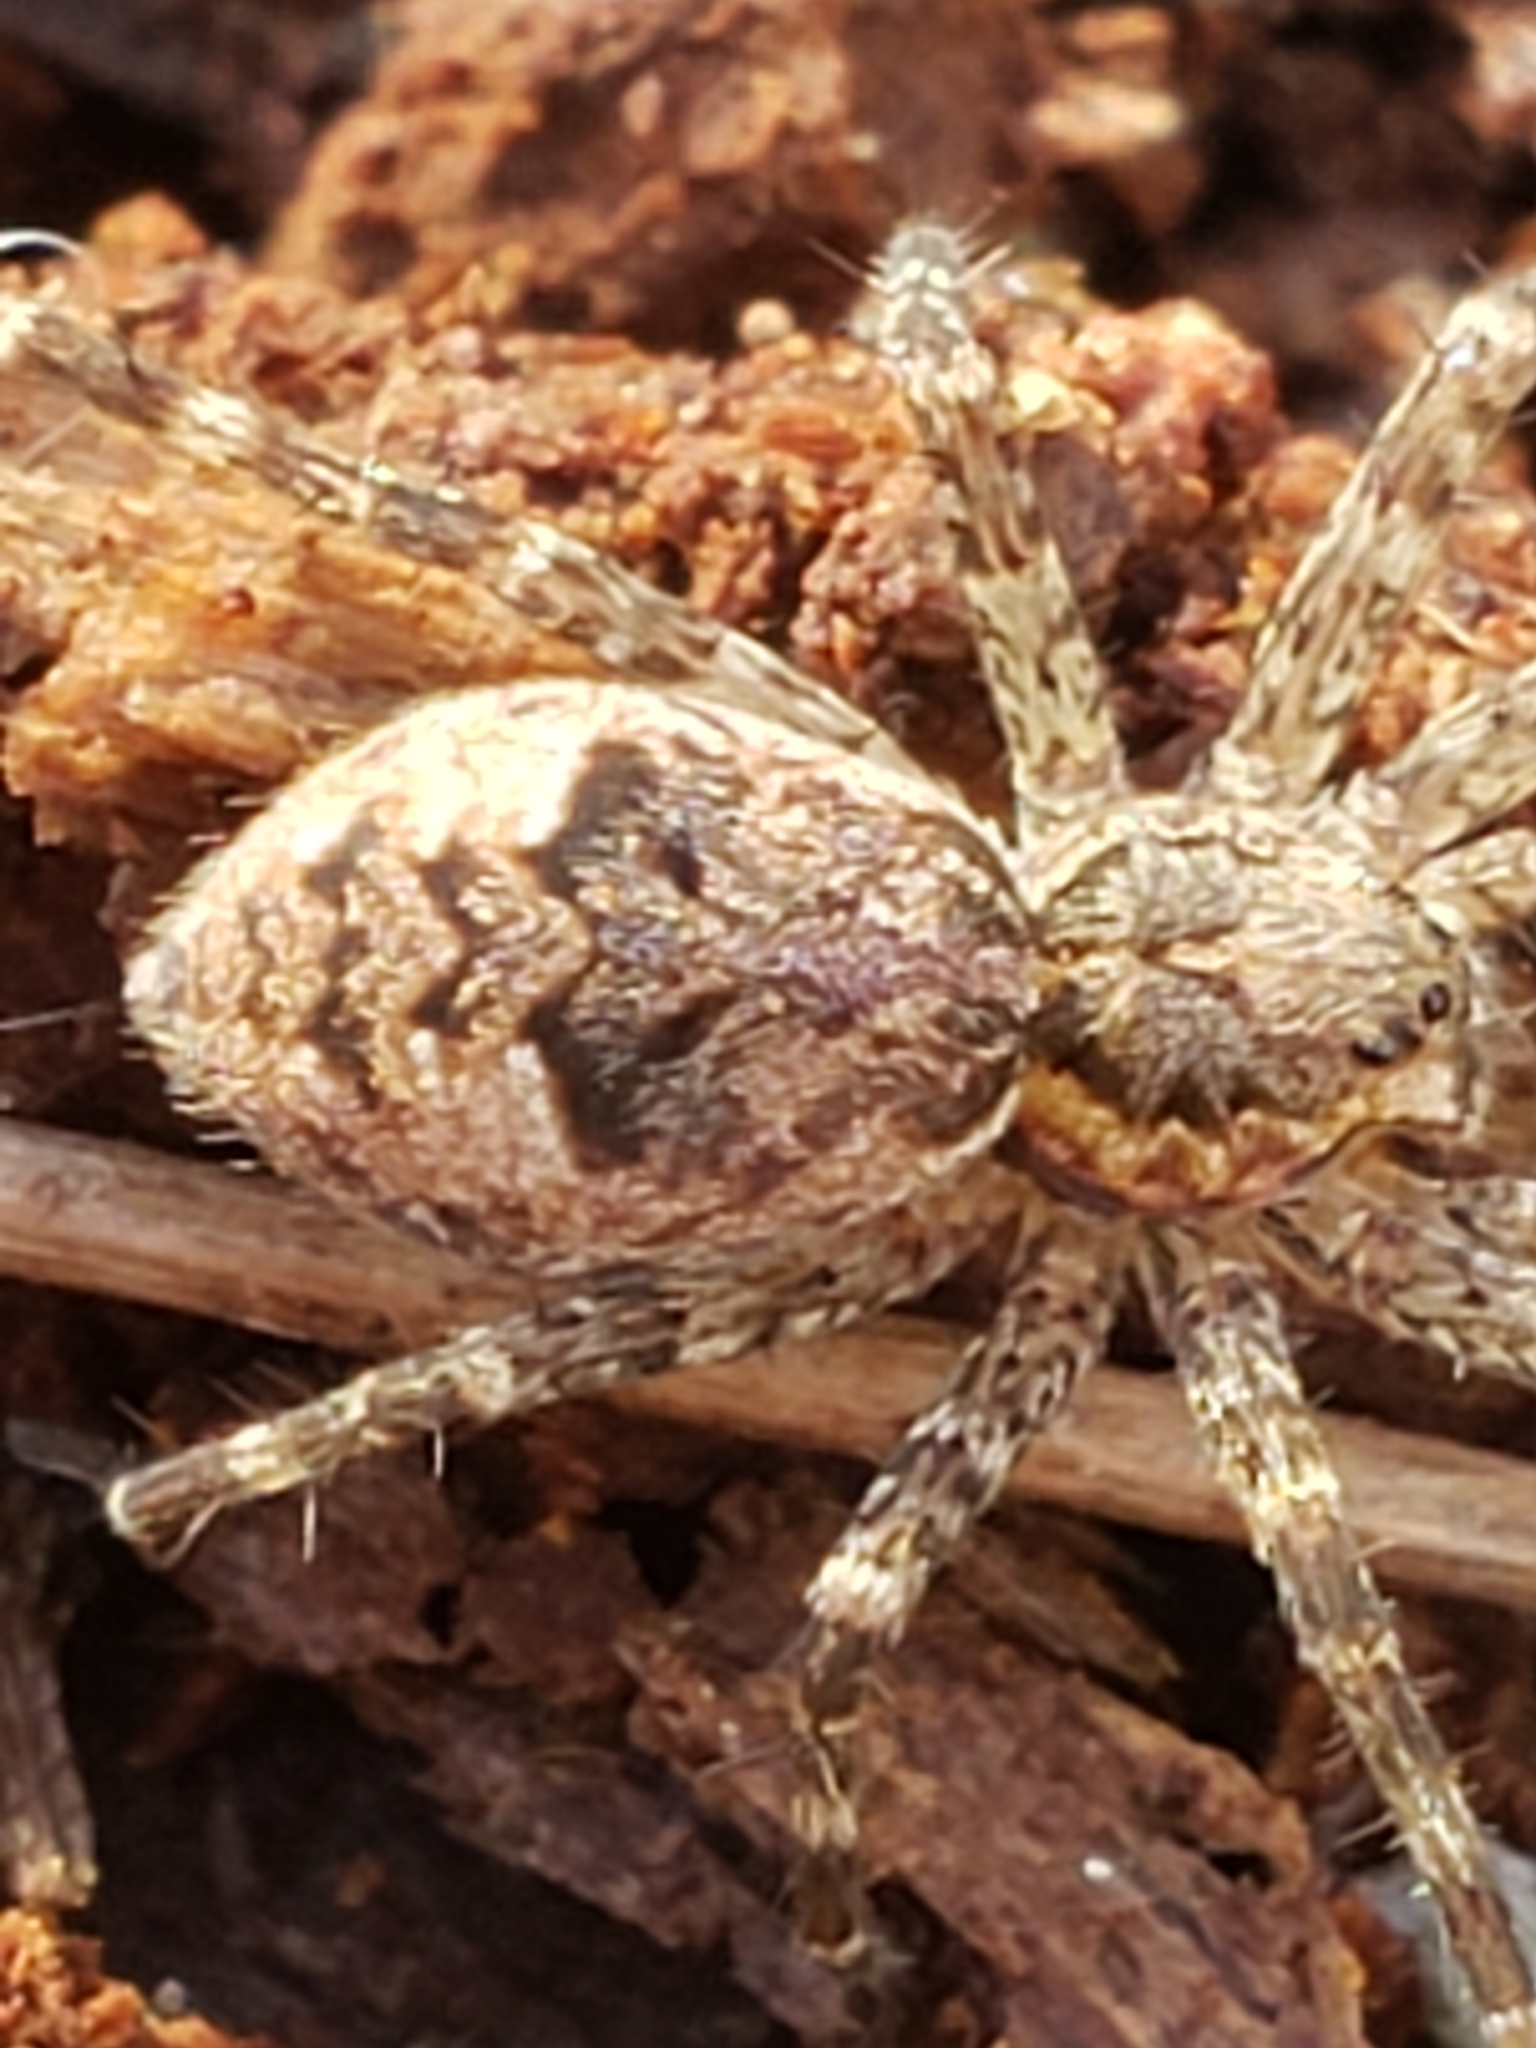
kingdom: Animalia
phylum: Arthropoda
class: Arachnida
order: Araneae
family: Pisauridae
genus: Dolomedes
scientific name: Dolomedes tenebrosus
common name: Dark fishing spider
